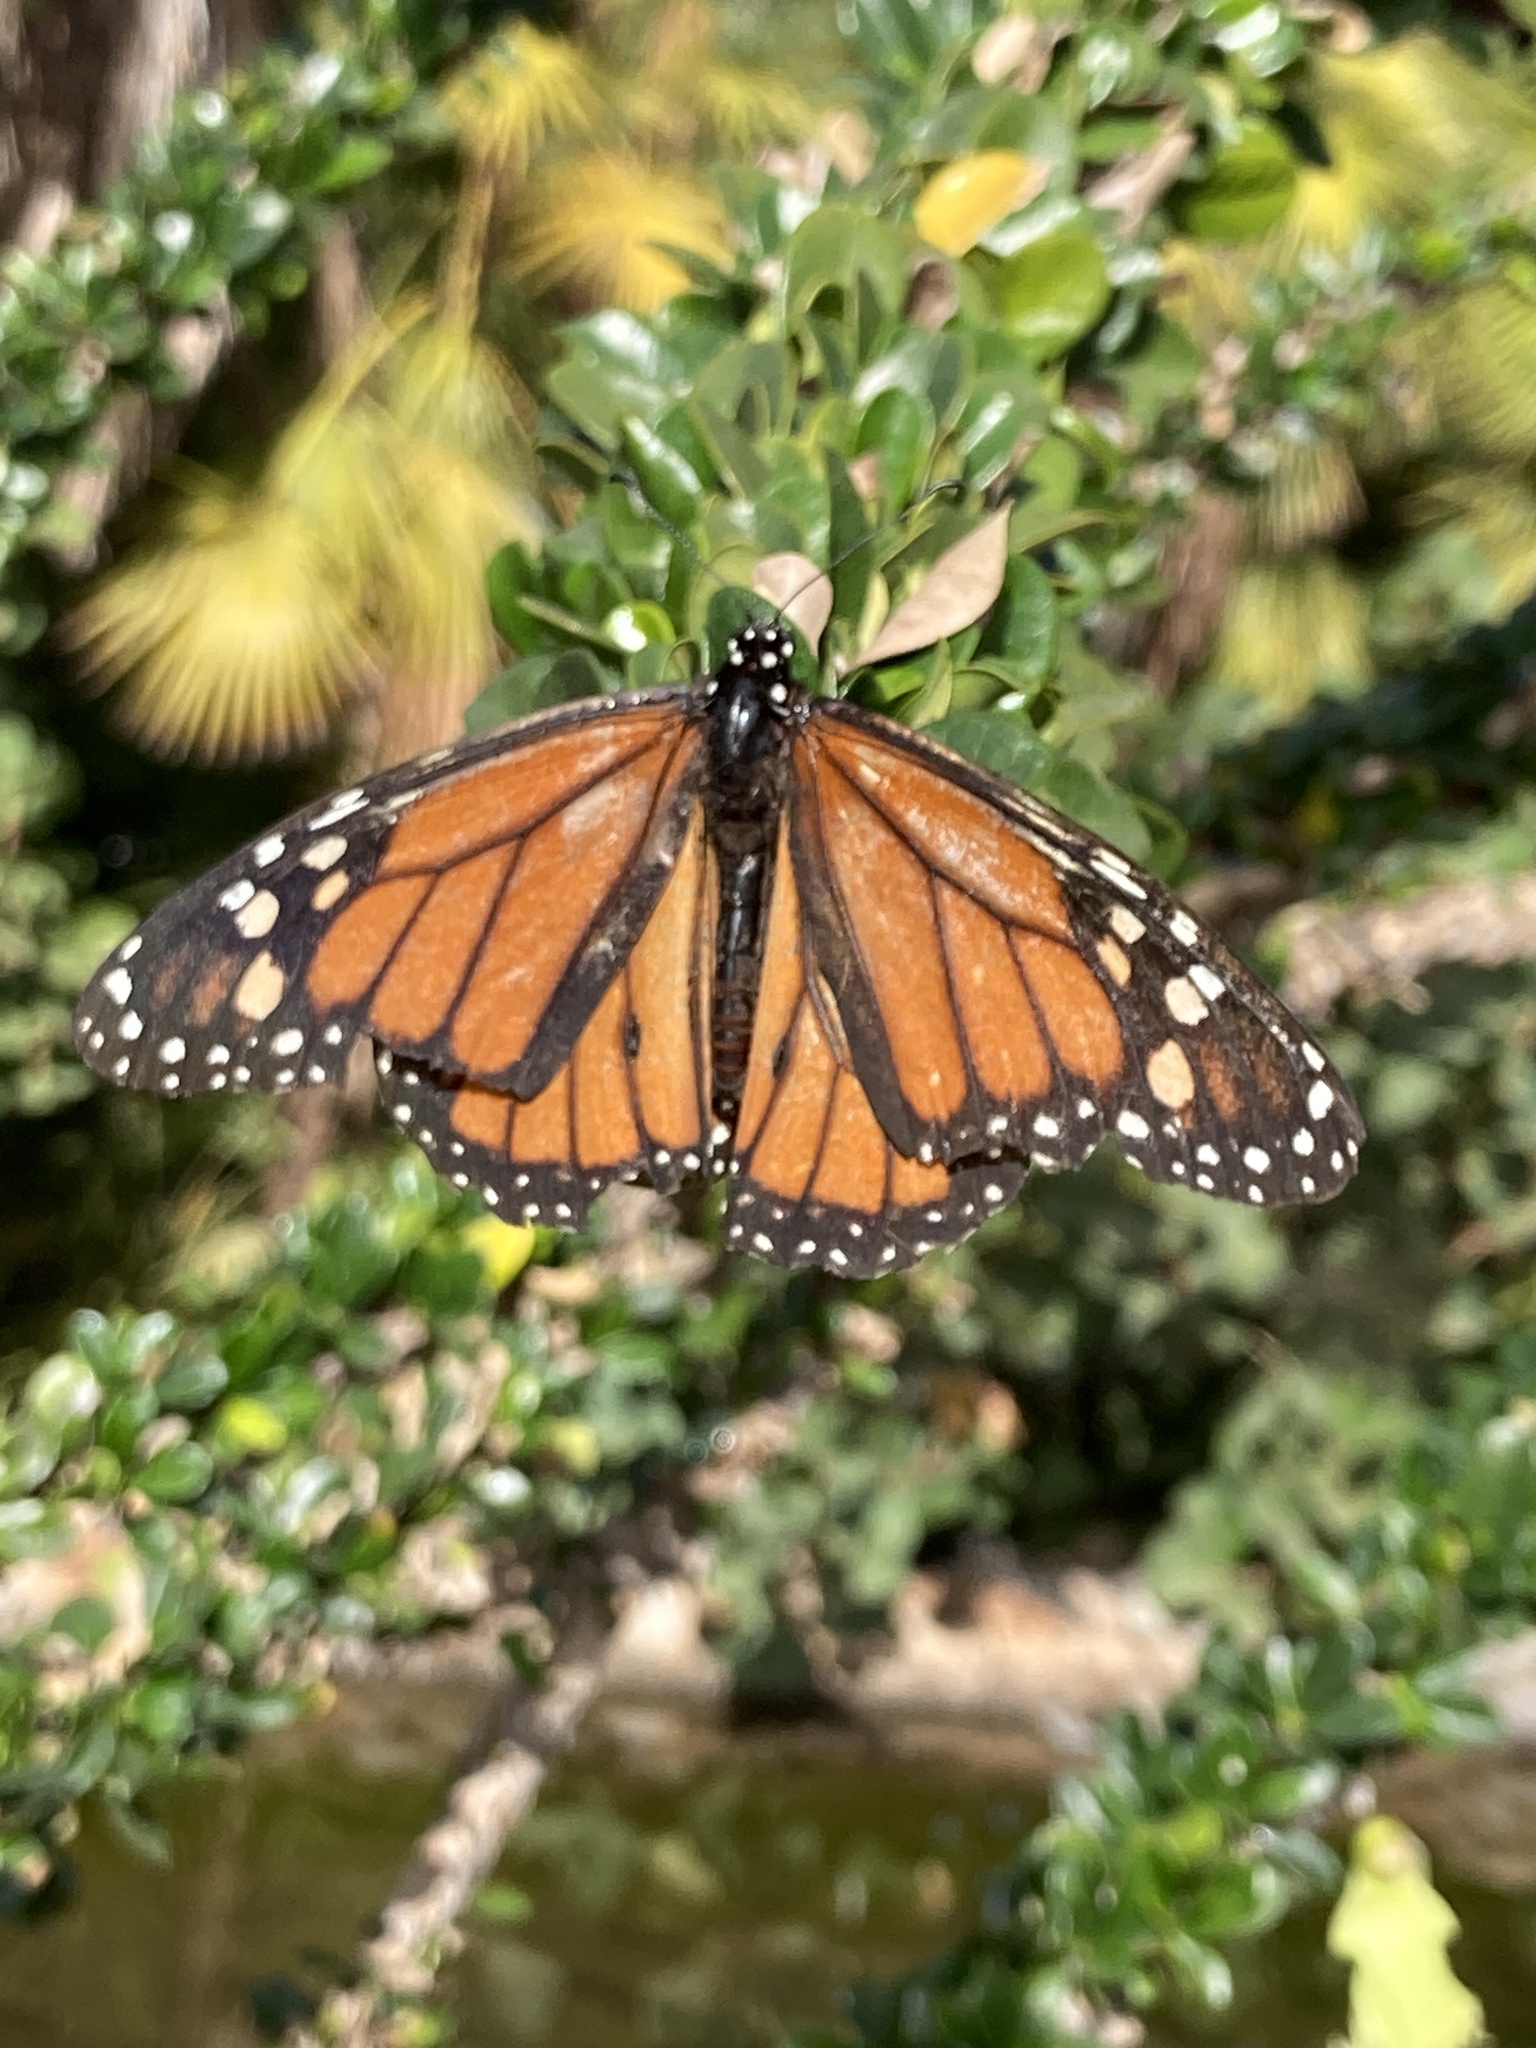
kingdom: Animalia
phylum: Arthropoda
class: Insecta
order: Lepidoptera
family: Nymphalidae
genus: Danaus
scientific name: Danaus plexippus
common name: Monarch
